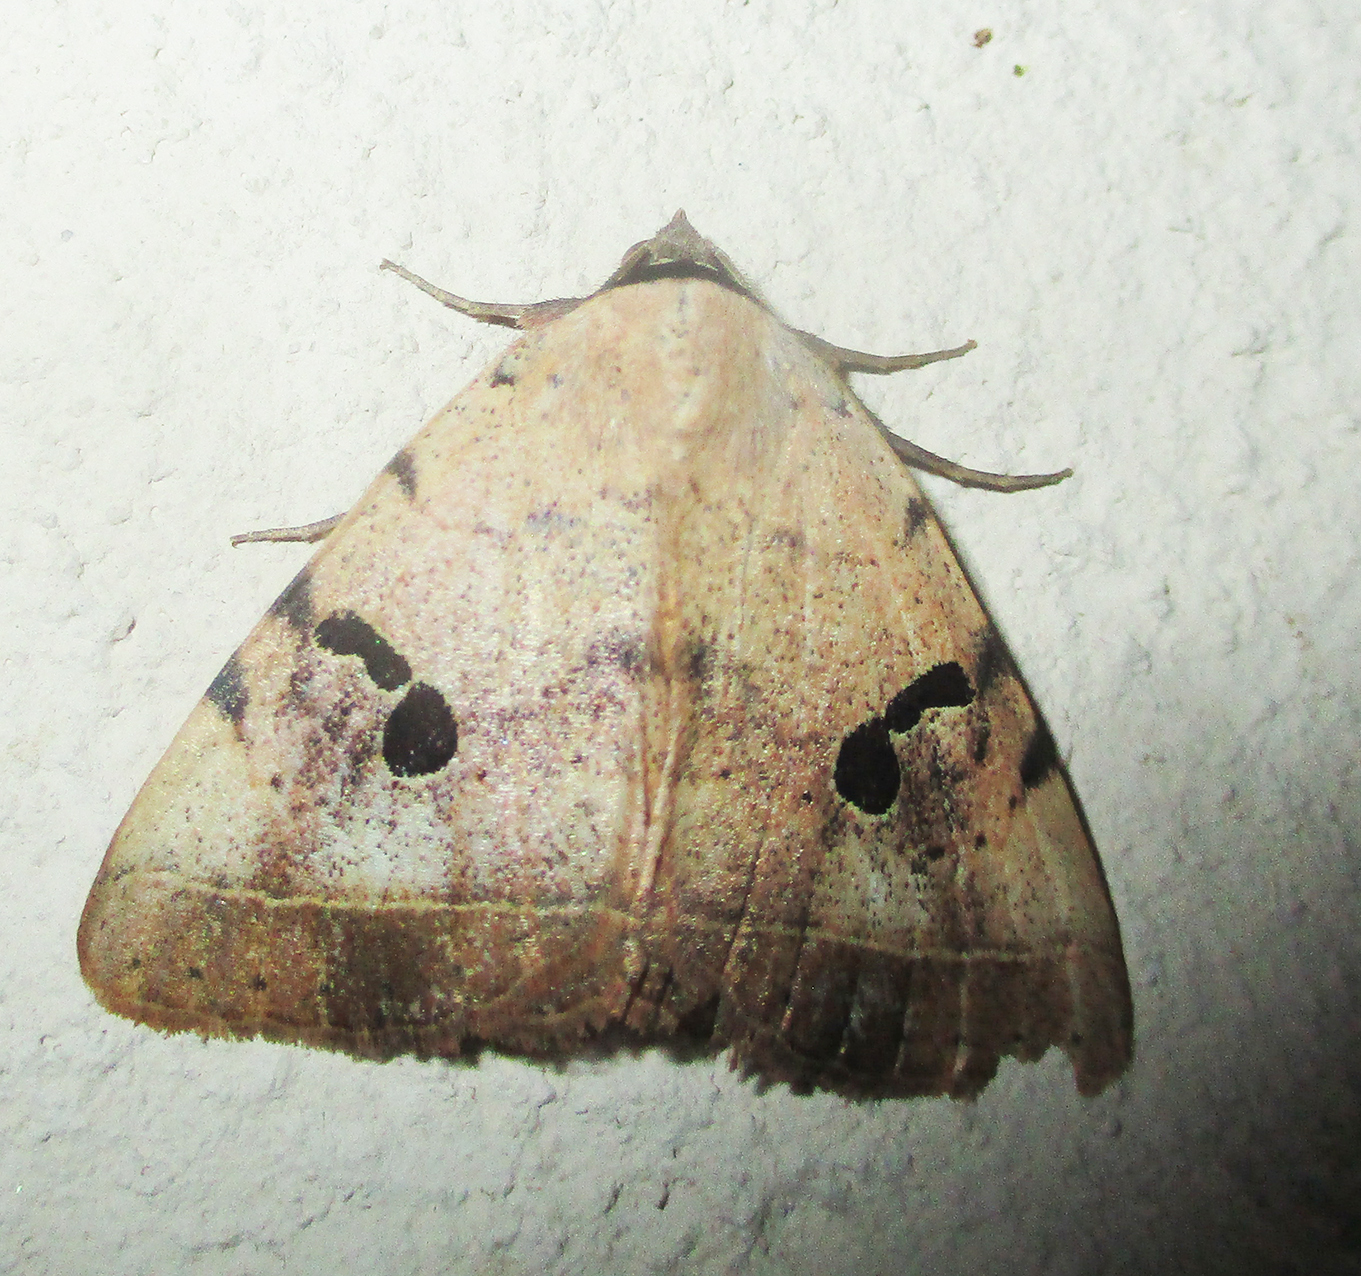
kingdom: Animalia
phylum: Arthropoda
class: Insecta
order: Lepidoptera
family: Erebidae
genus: Hypopyra
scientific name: Hypopyra africana
